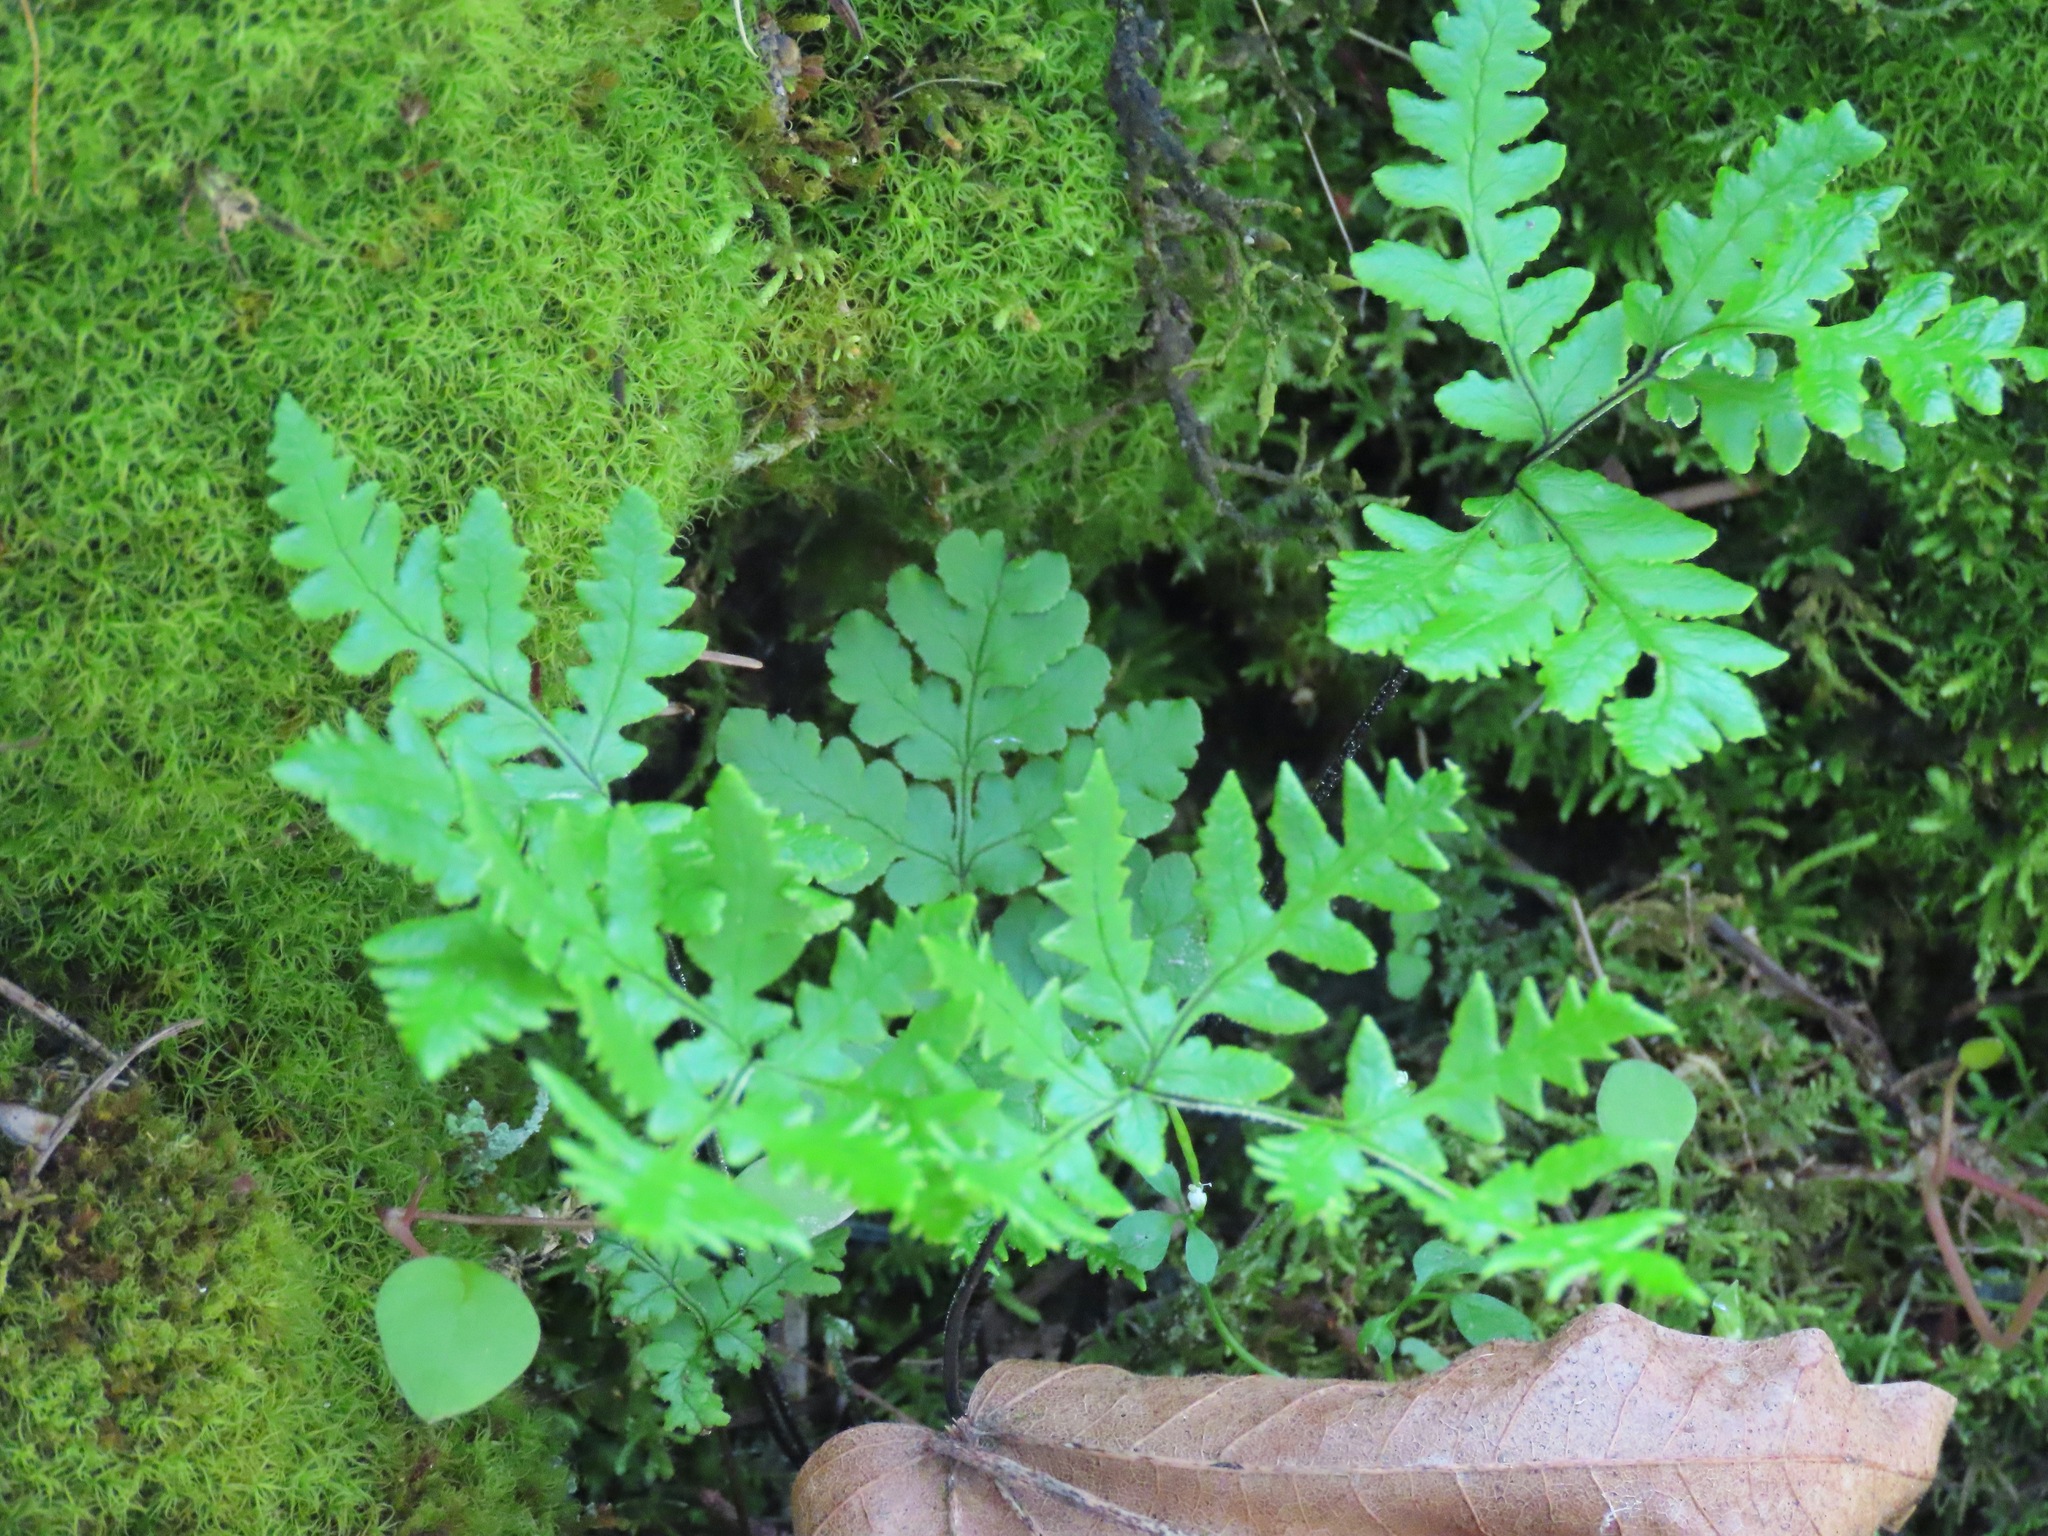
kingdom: Plantae
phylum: Tracheophyta
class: Polypodiopsida
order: Polypodiales
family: Pteridaceae
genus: Pentagramma
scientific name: Pentagramma triangularis
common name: Gold fern
